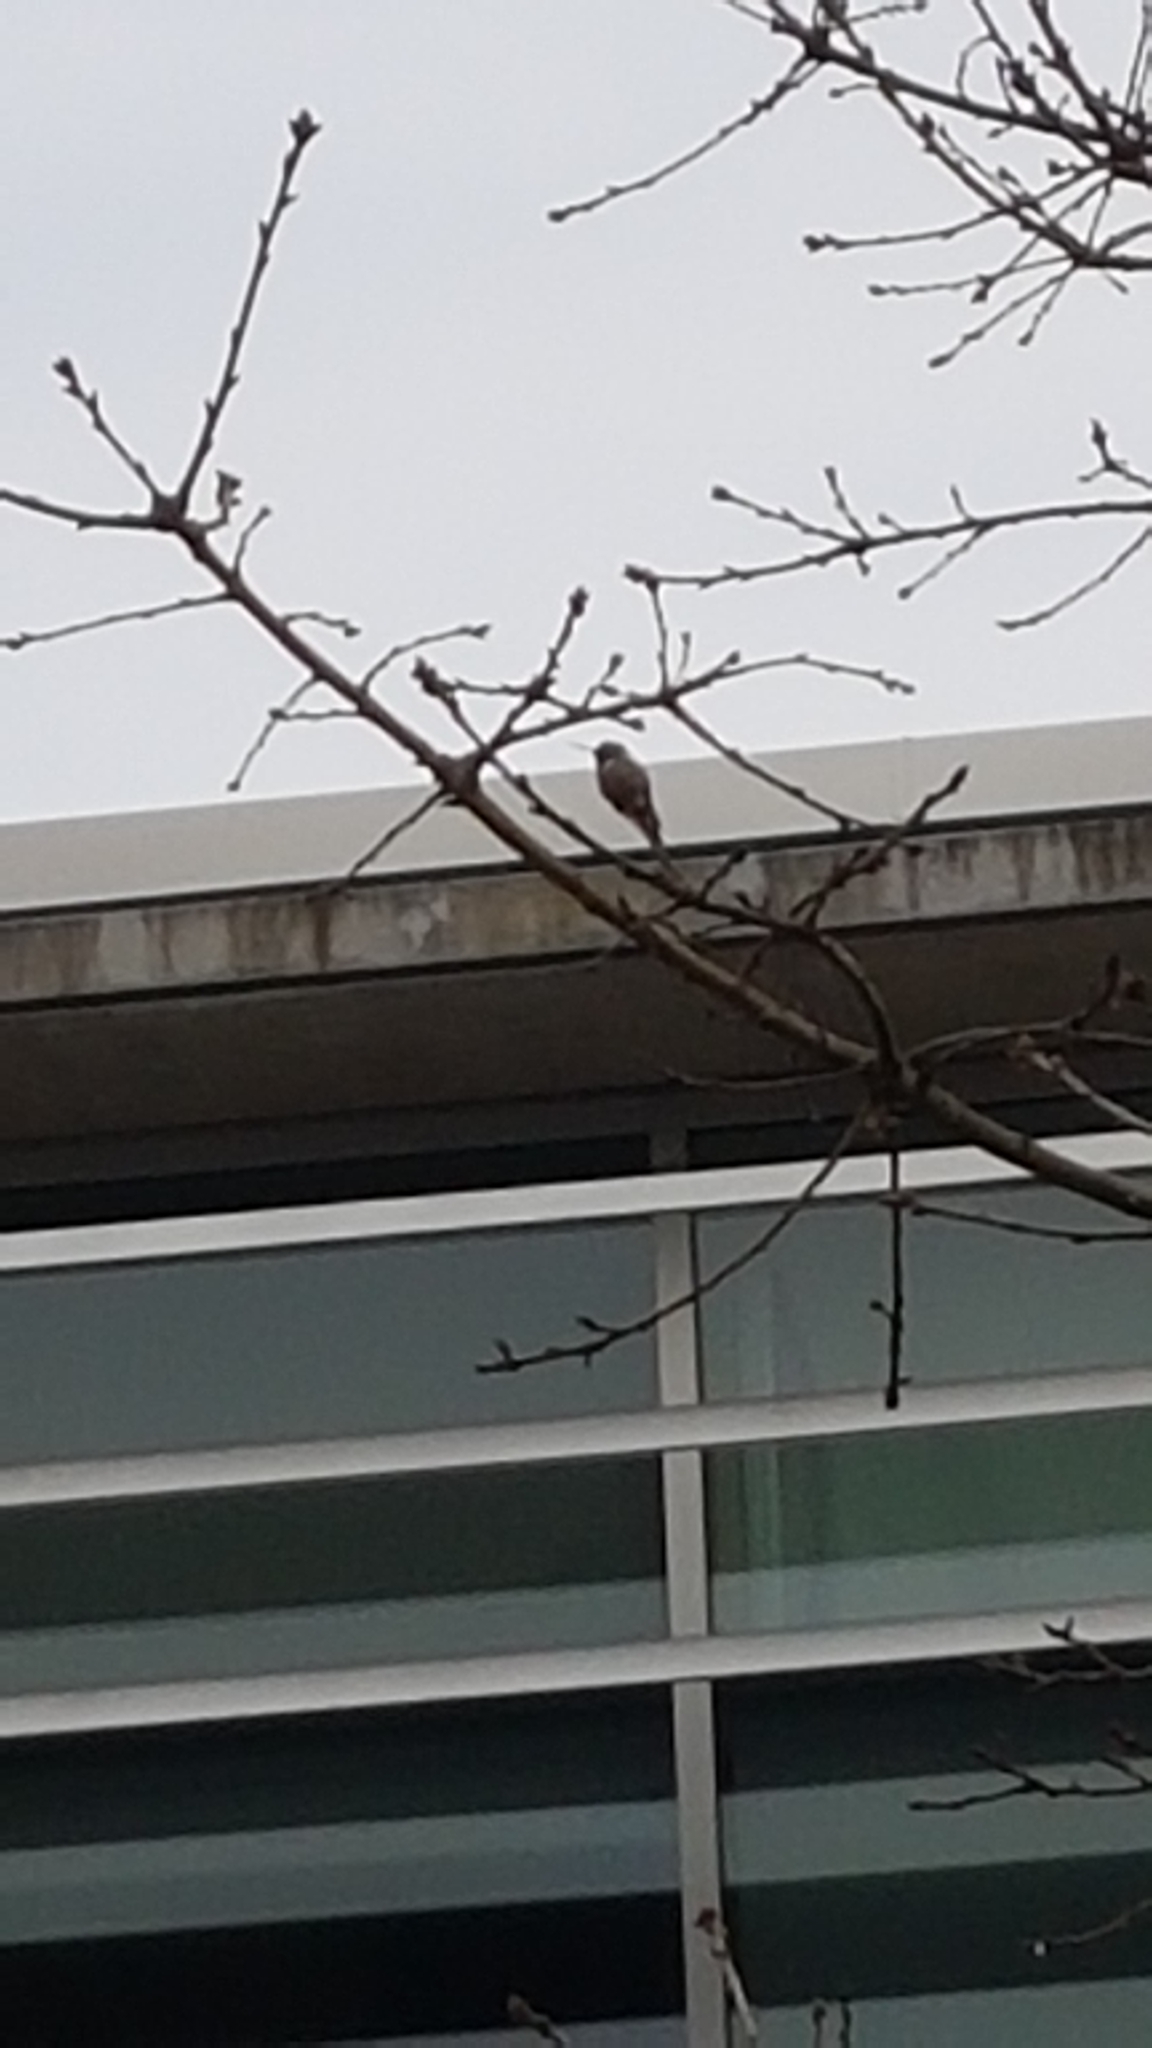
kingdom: Animalia
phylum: Chordata
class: Aves
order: Apodiformes
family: Trochilidae
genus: Calypte
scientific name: Calypte anna
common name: Anna's hummingbird
